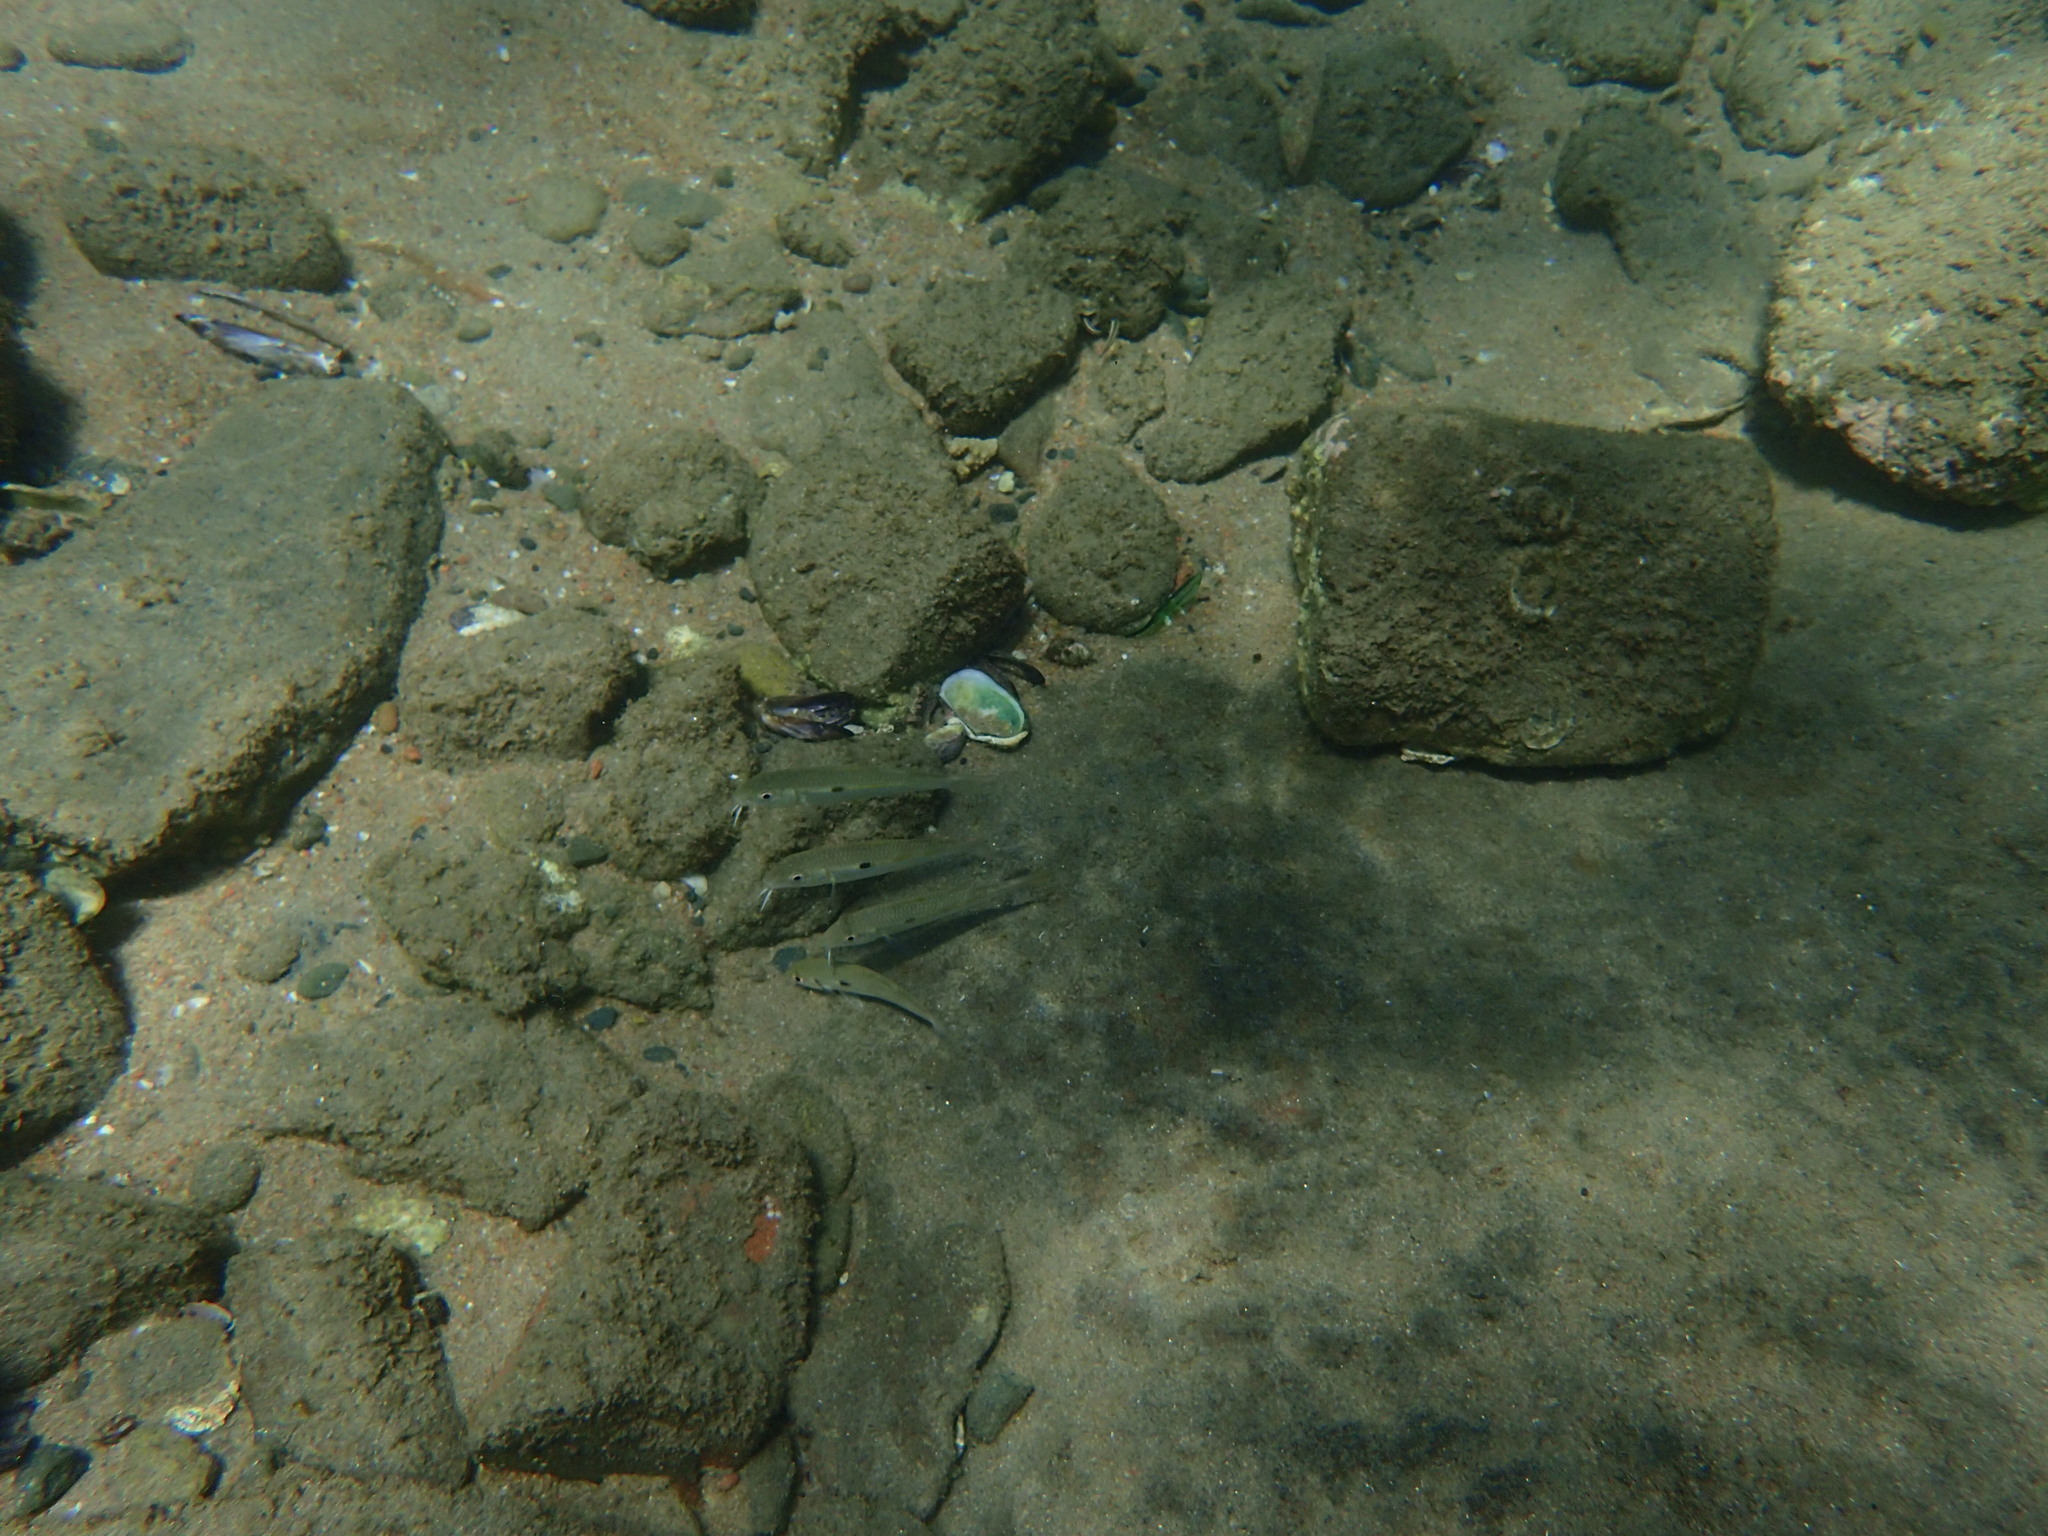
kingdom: Animalia
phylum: Chordata
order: Perciformes
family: Mullidae
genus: Mulloidichthys
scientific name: Mulloidichthys flavolineatus
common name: Yellowstripe goatfish
